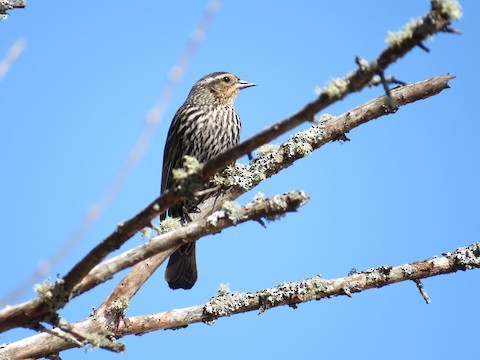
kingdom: Animalia
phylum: Chordata
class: Aves
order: Passeriformes
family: Icteridae
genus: Agelaius
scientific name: Agelaius phoeniceus
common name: Red-winged blackbird
